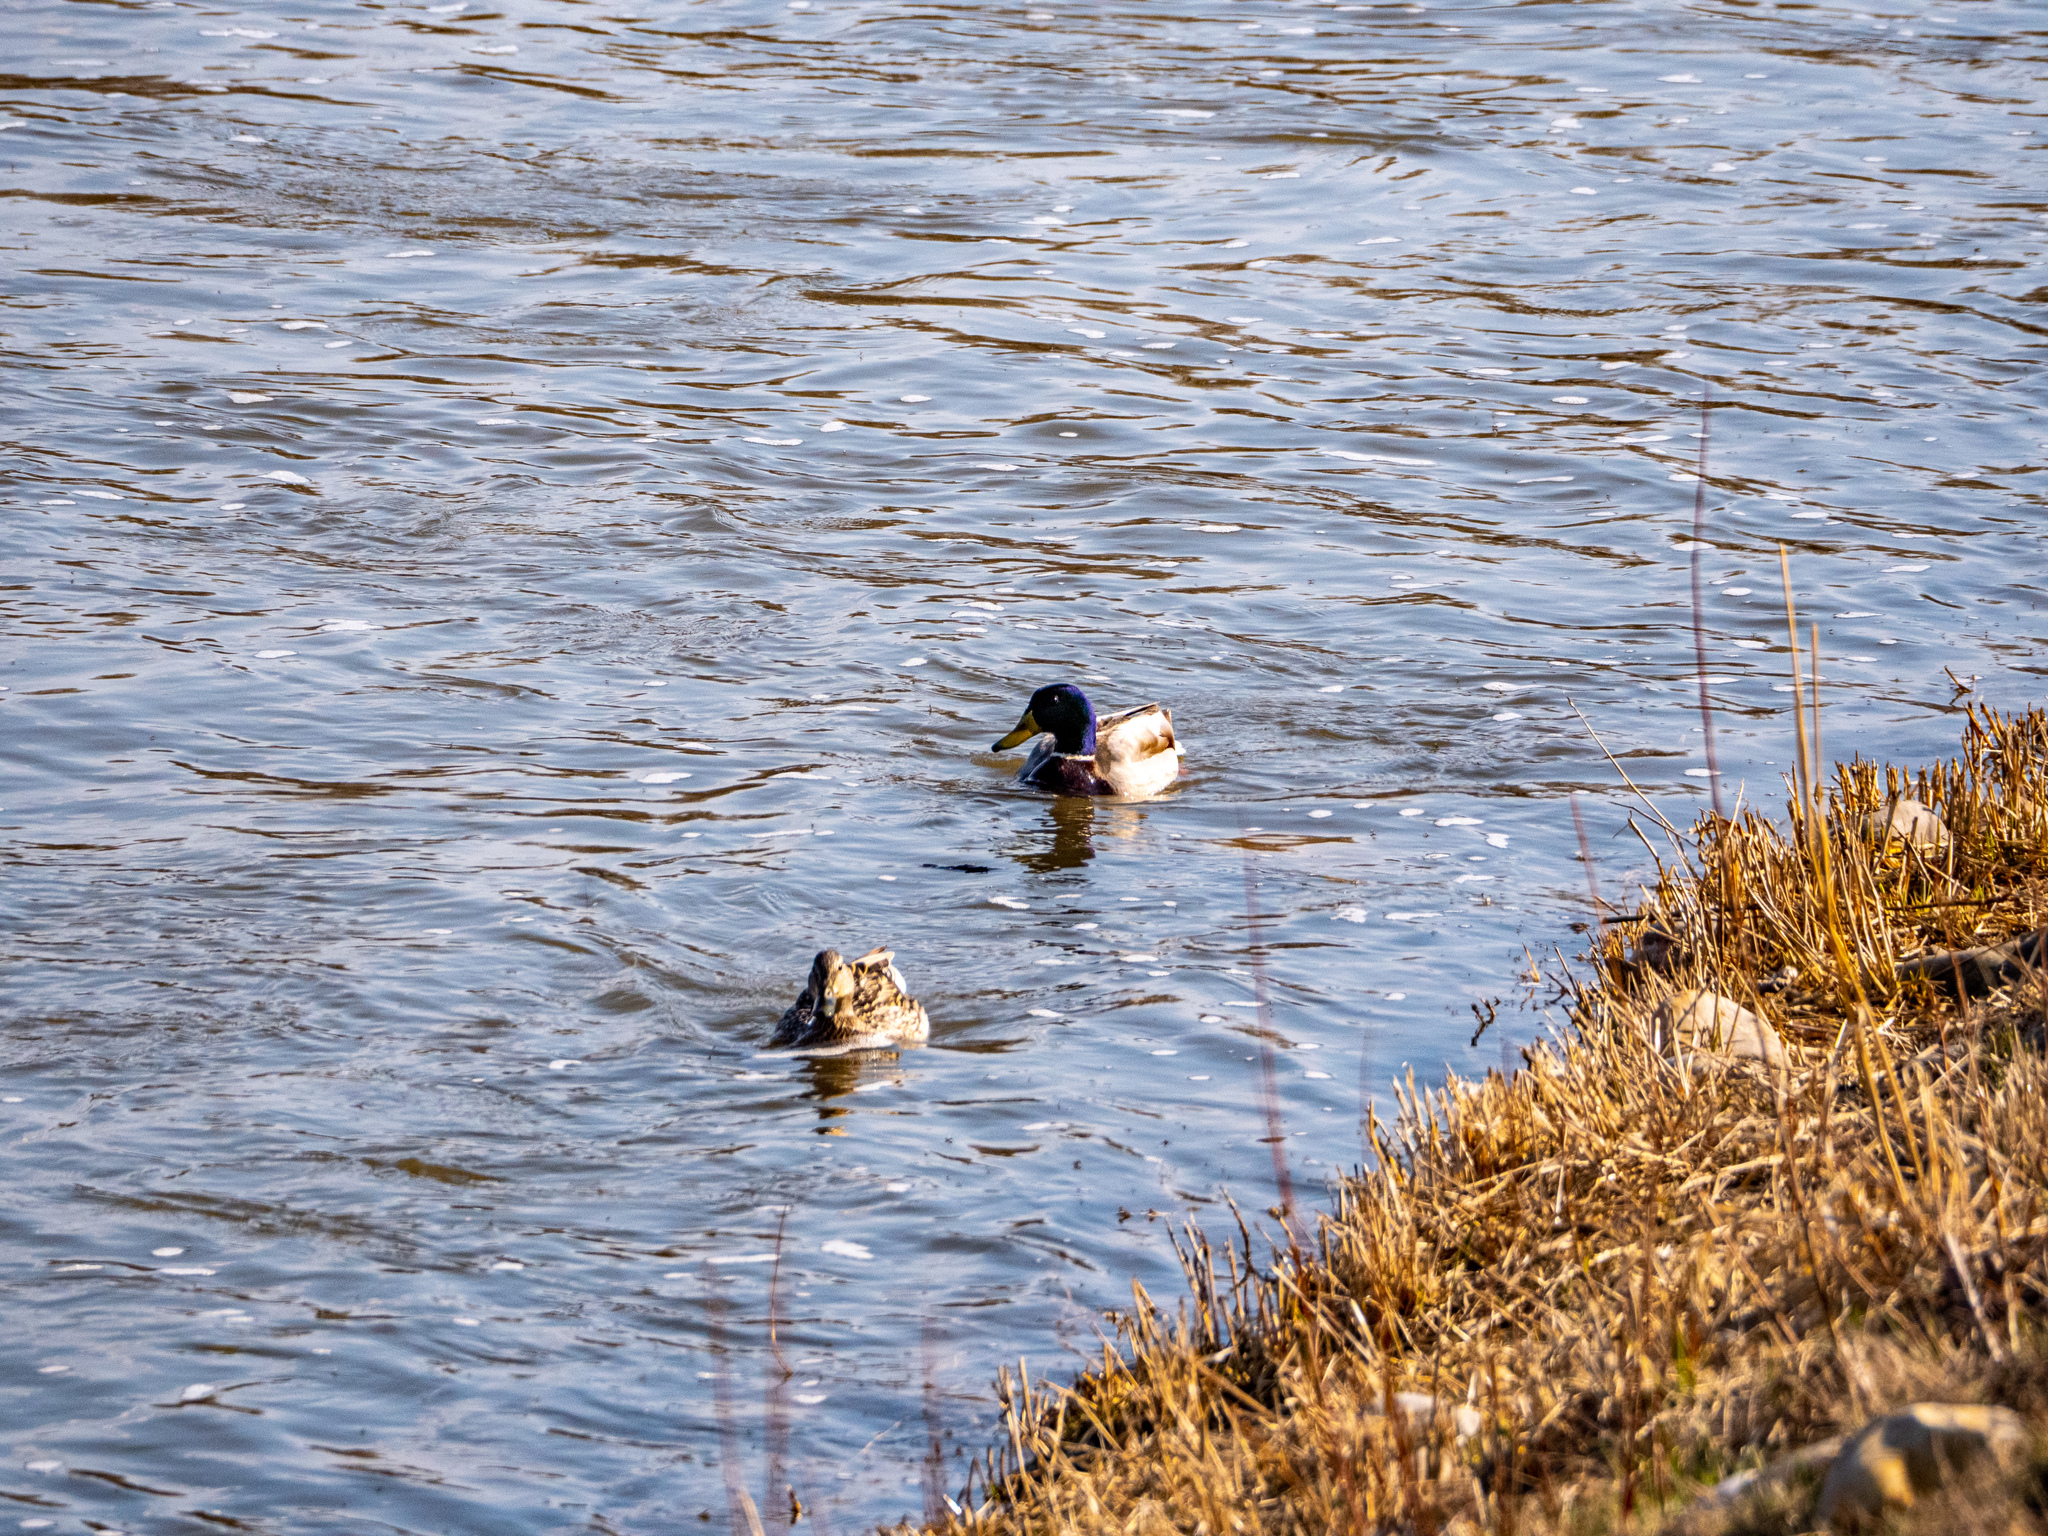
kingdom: Animalia
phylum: Chordata
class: Aves
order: Anseriformes
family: Anatidae
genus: Anas
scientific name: Anas platyrhynchos
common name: Mallard
